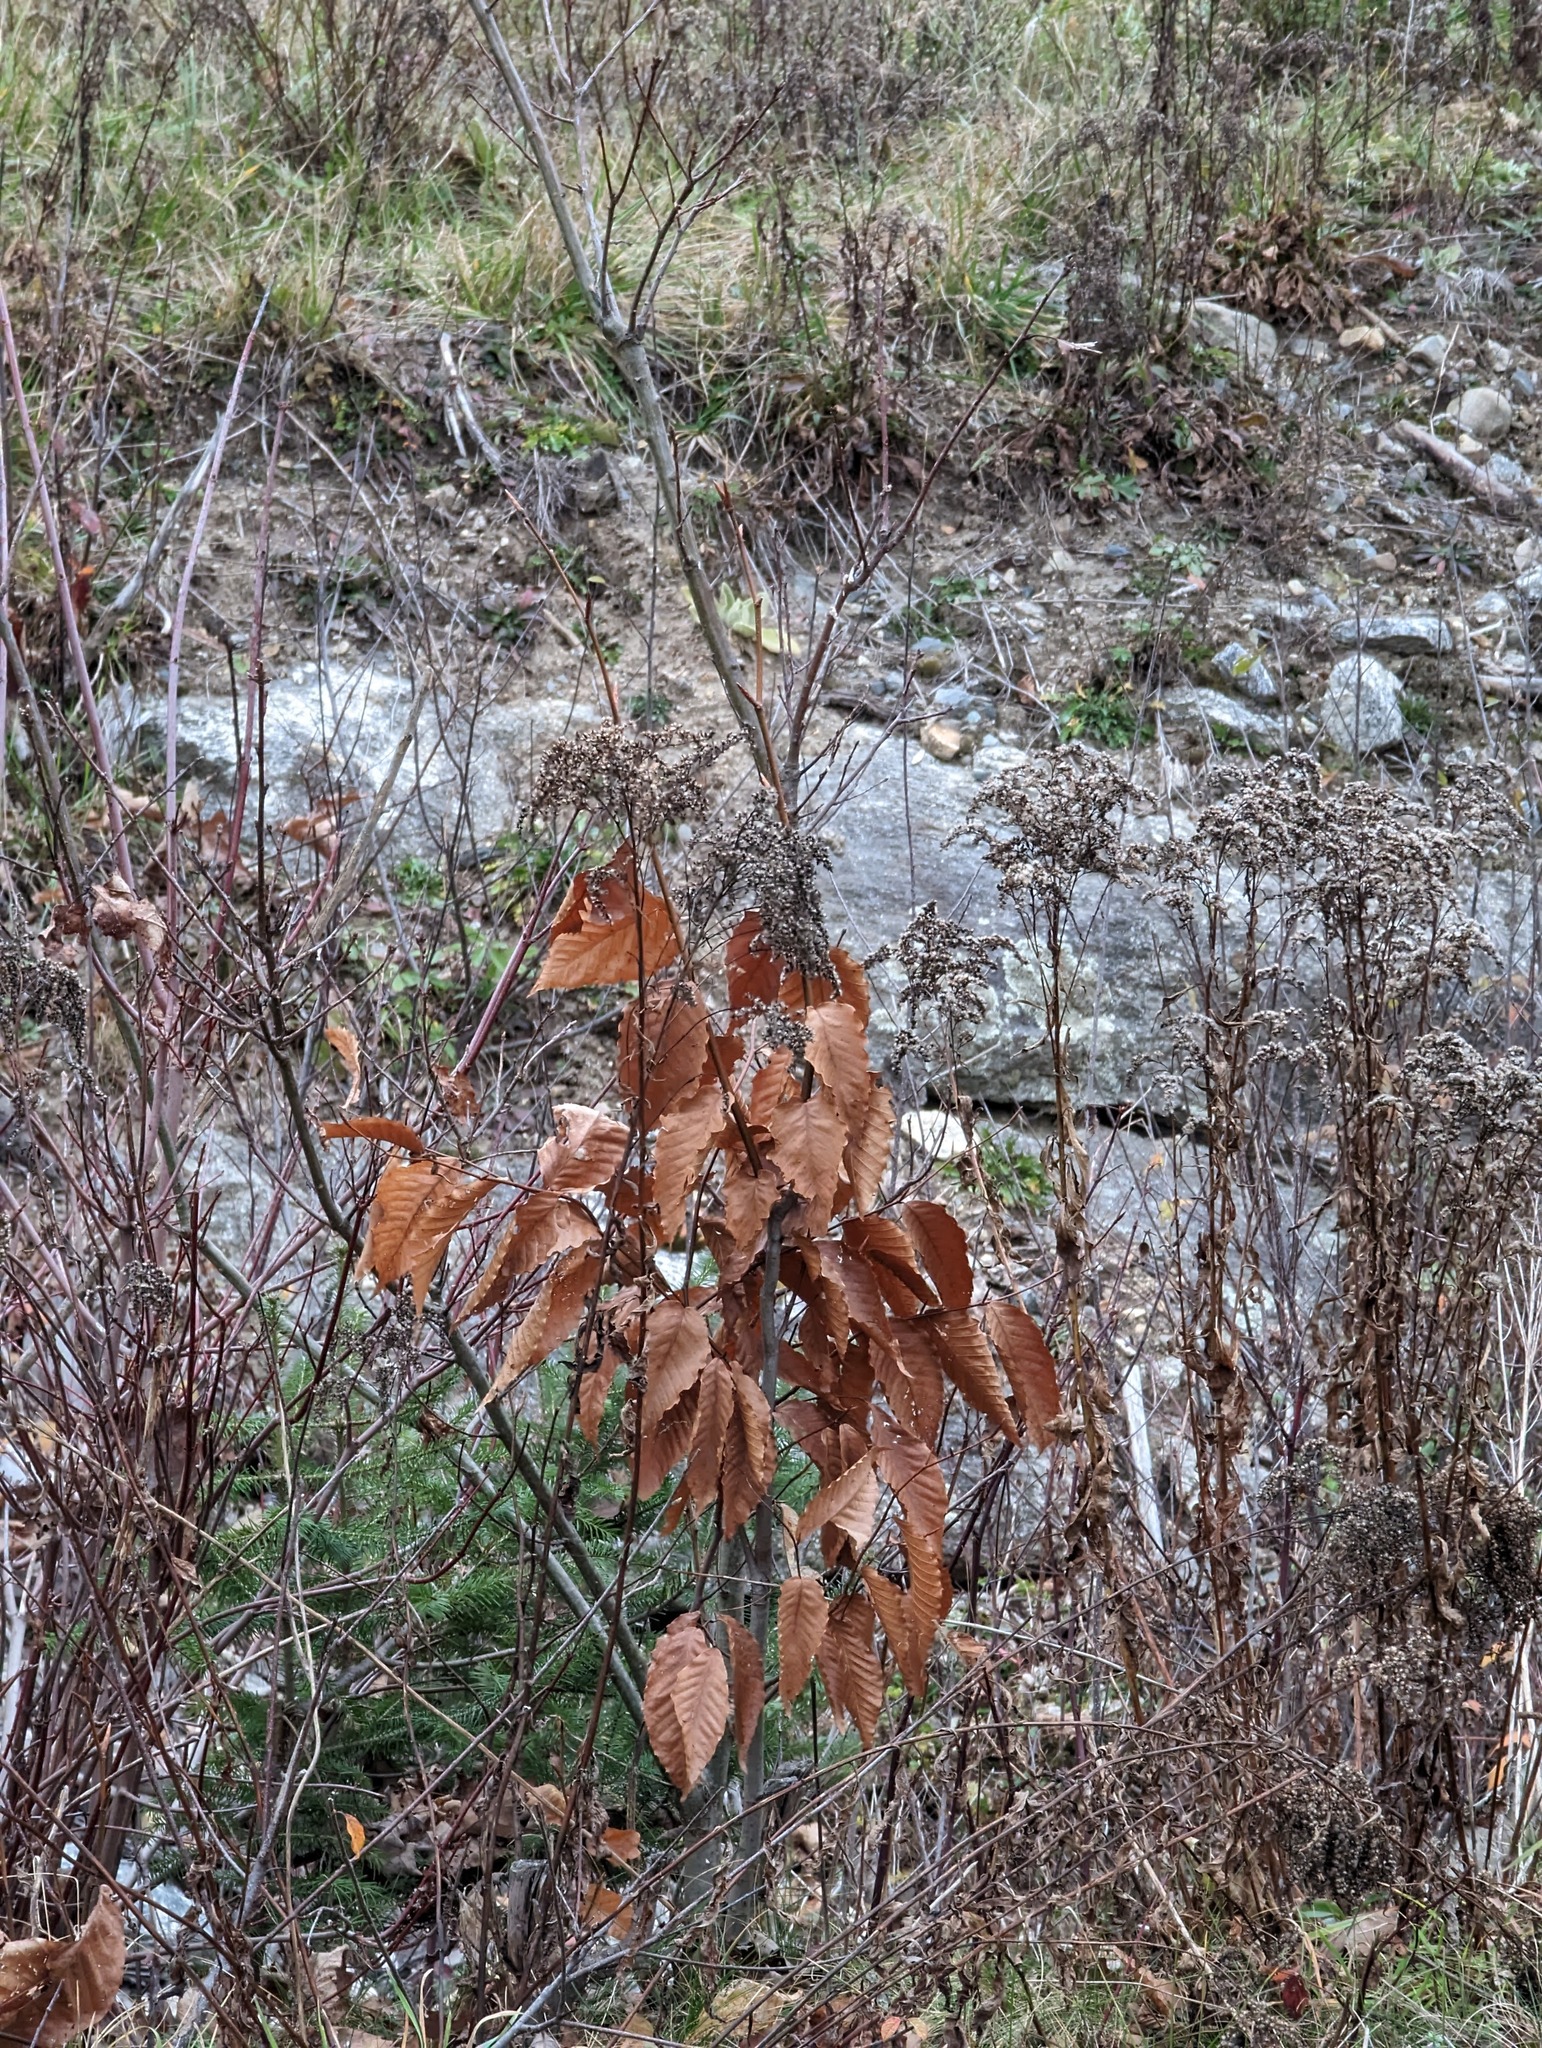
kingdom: Plantae
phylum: Tracheophyta
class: Magnoliopsida
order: Fagales
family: Fagaceae
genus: Fagus
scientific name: Fagus grandifolia
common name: American beech
